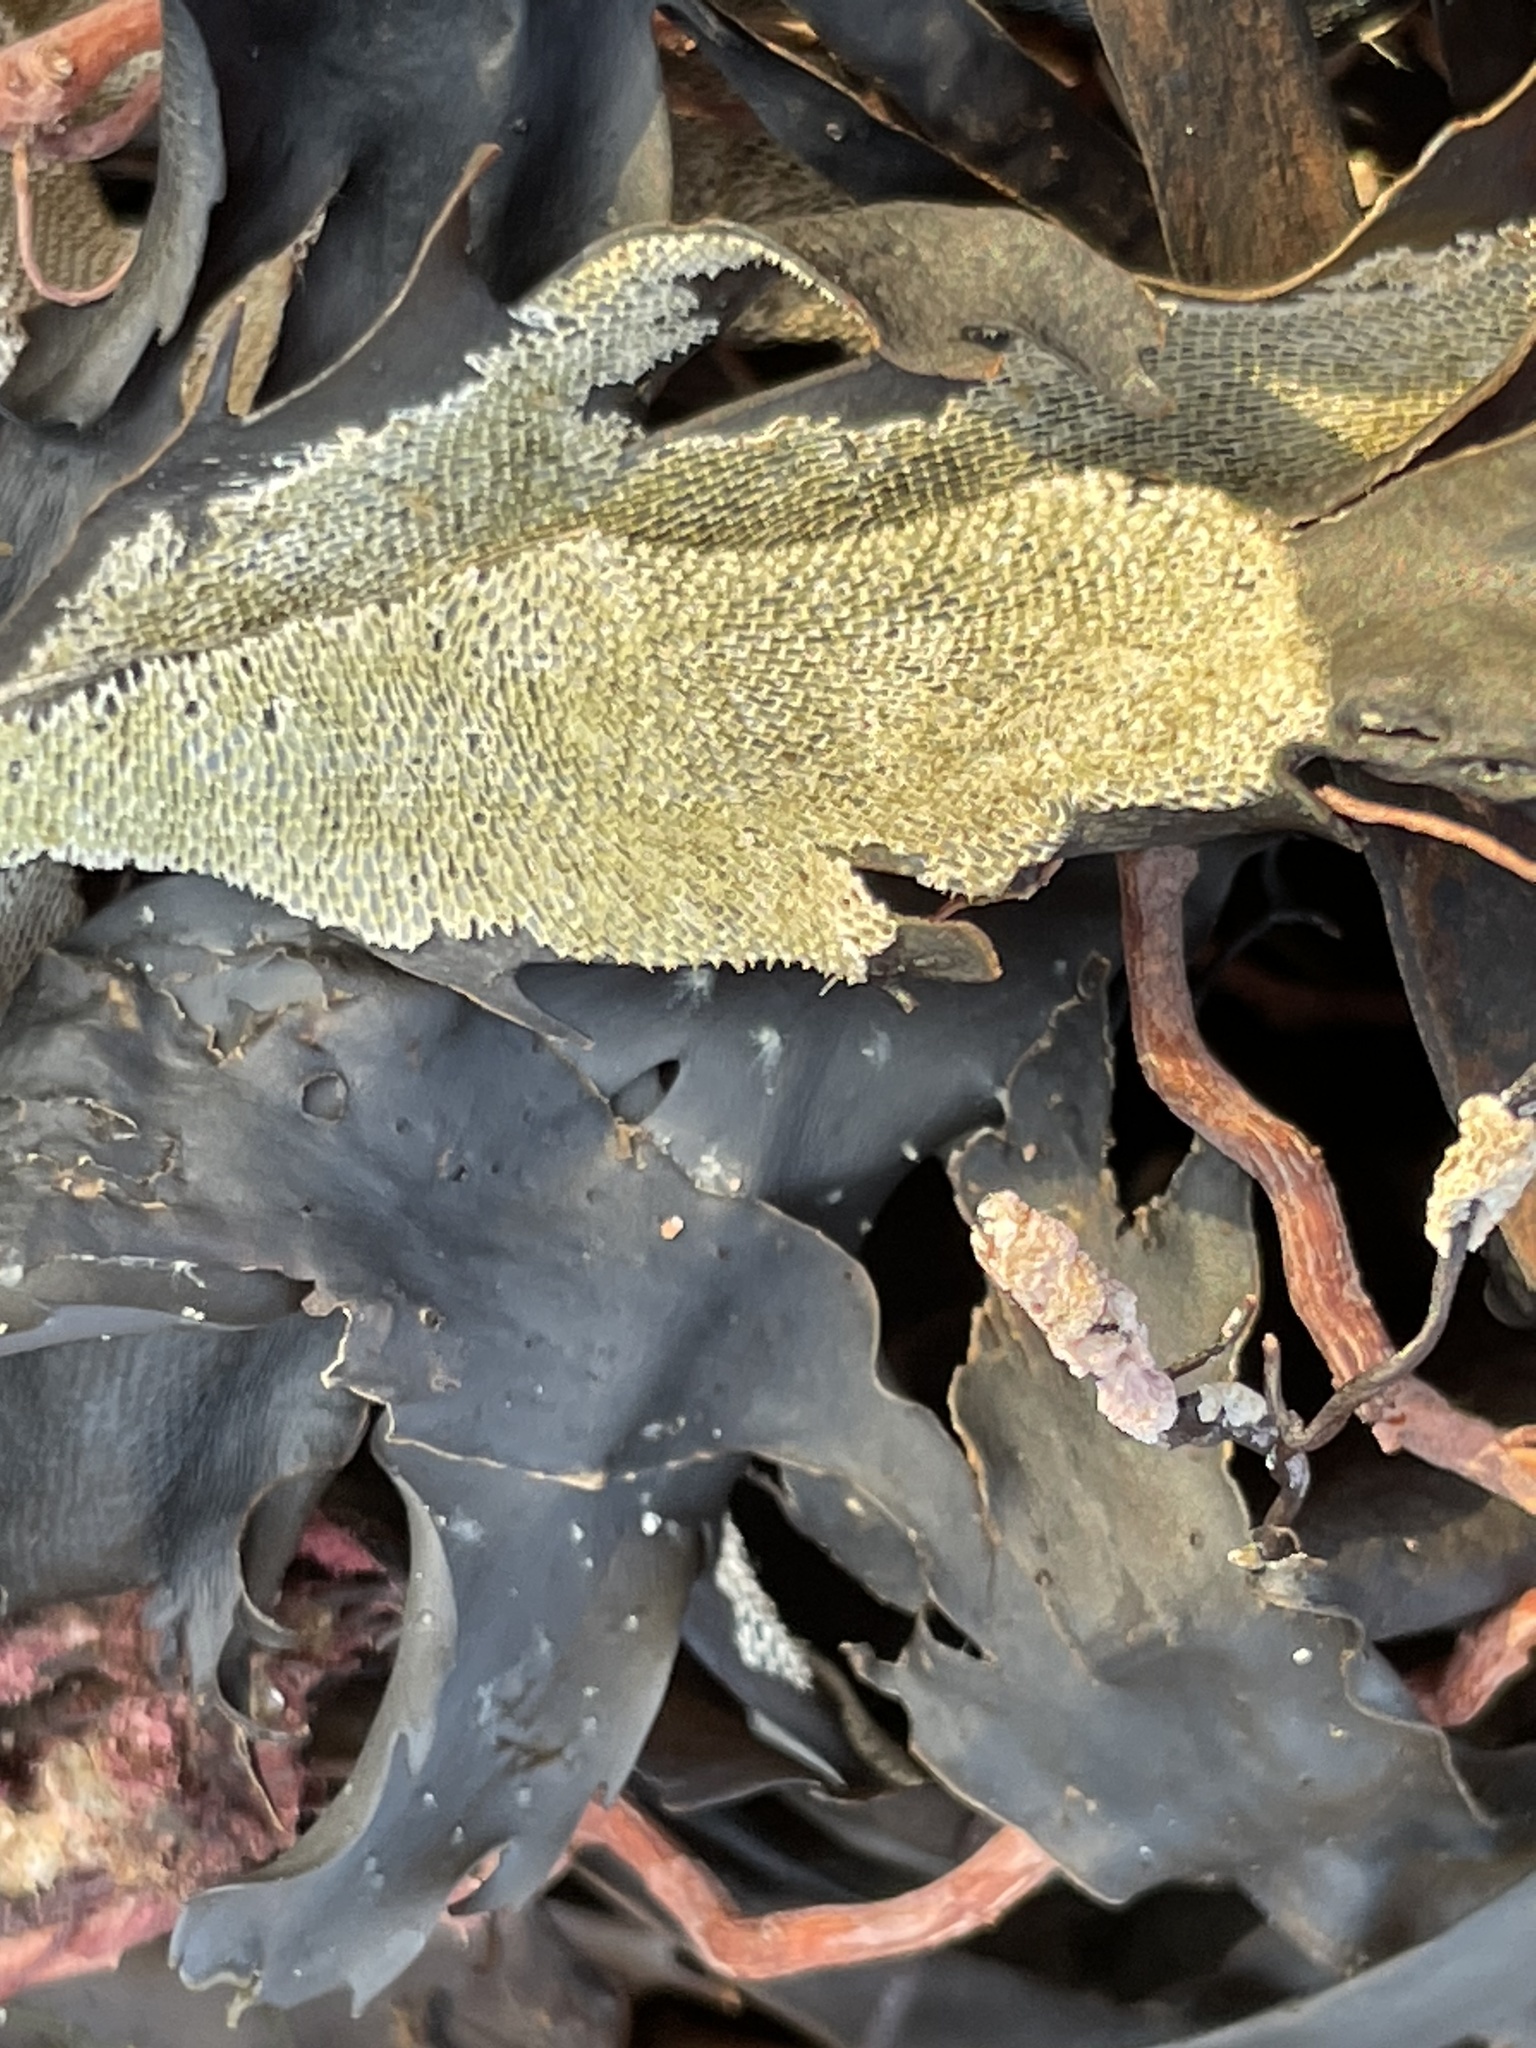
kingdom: Animalia
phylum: Bryozoa
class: Gymnolaemata
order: Cheilostomatida
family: Membraniporidae
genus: Membranipora
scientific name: Membranipora membranacea
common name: Sea mat
